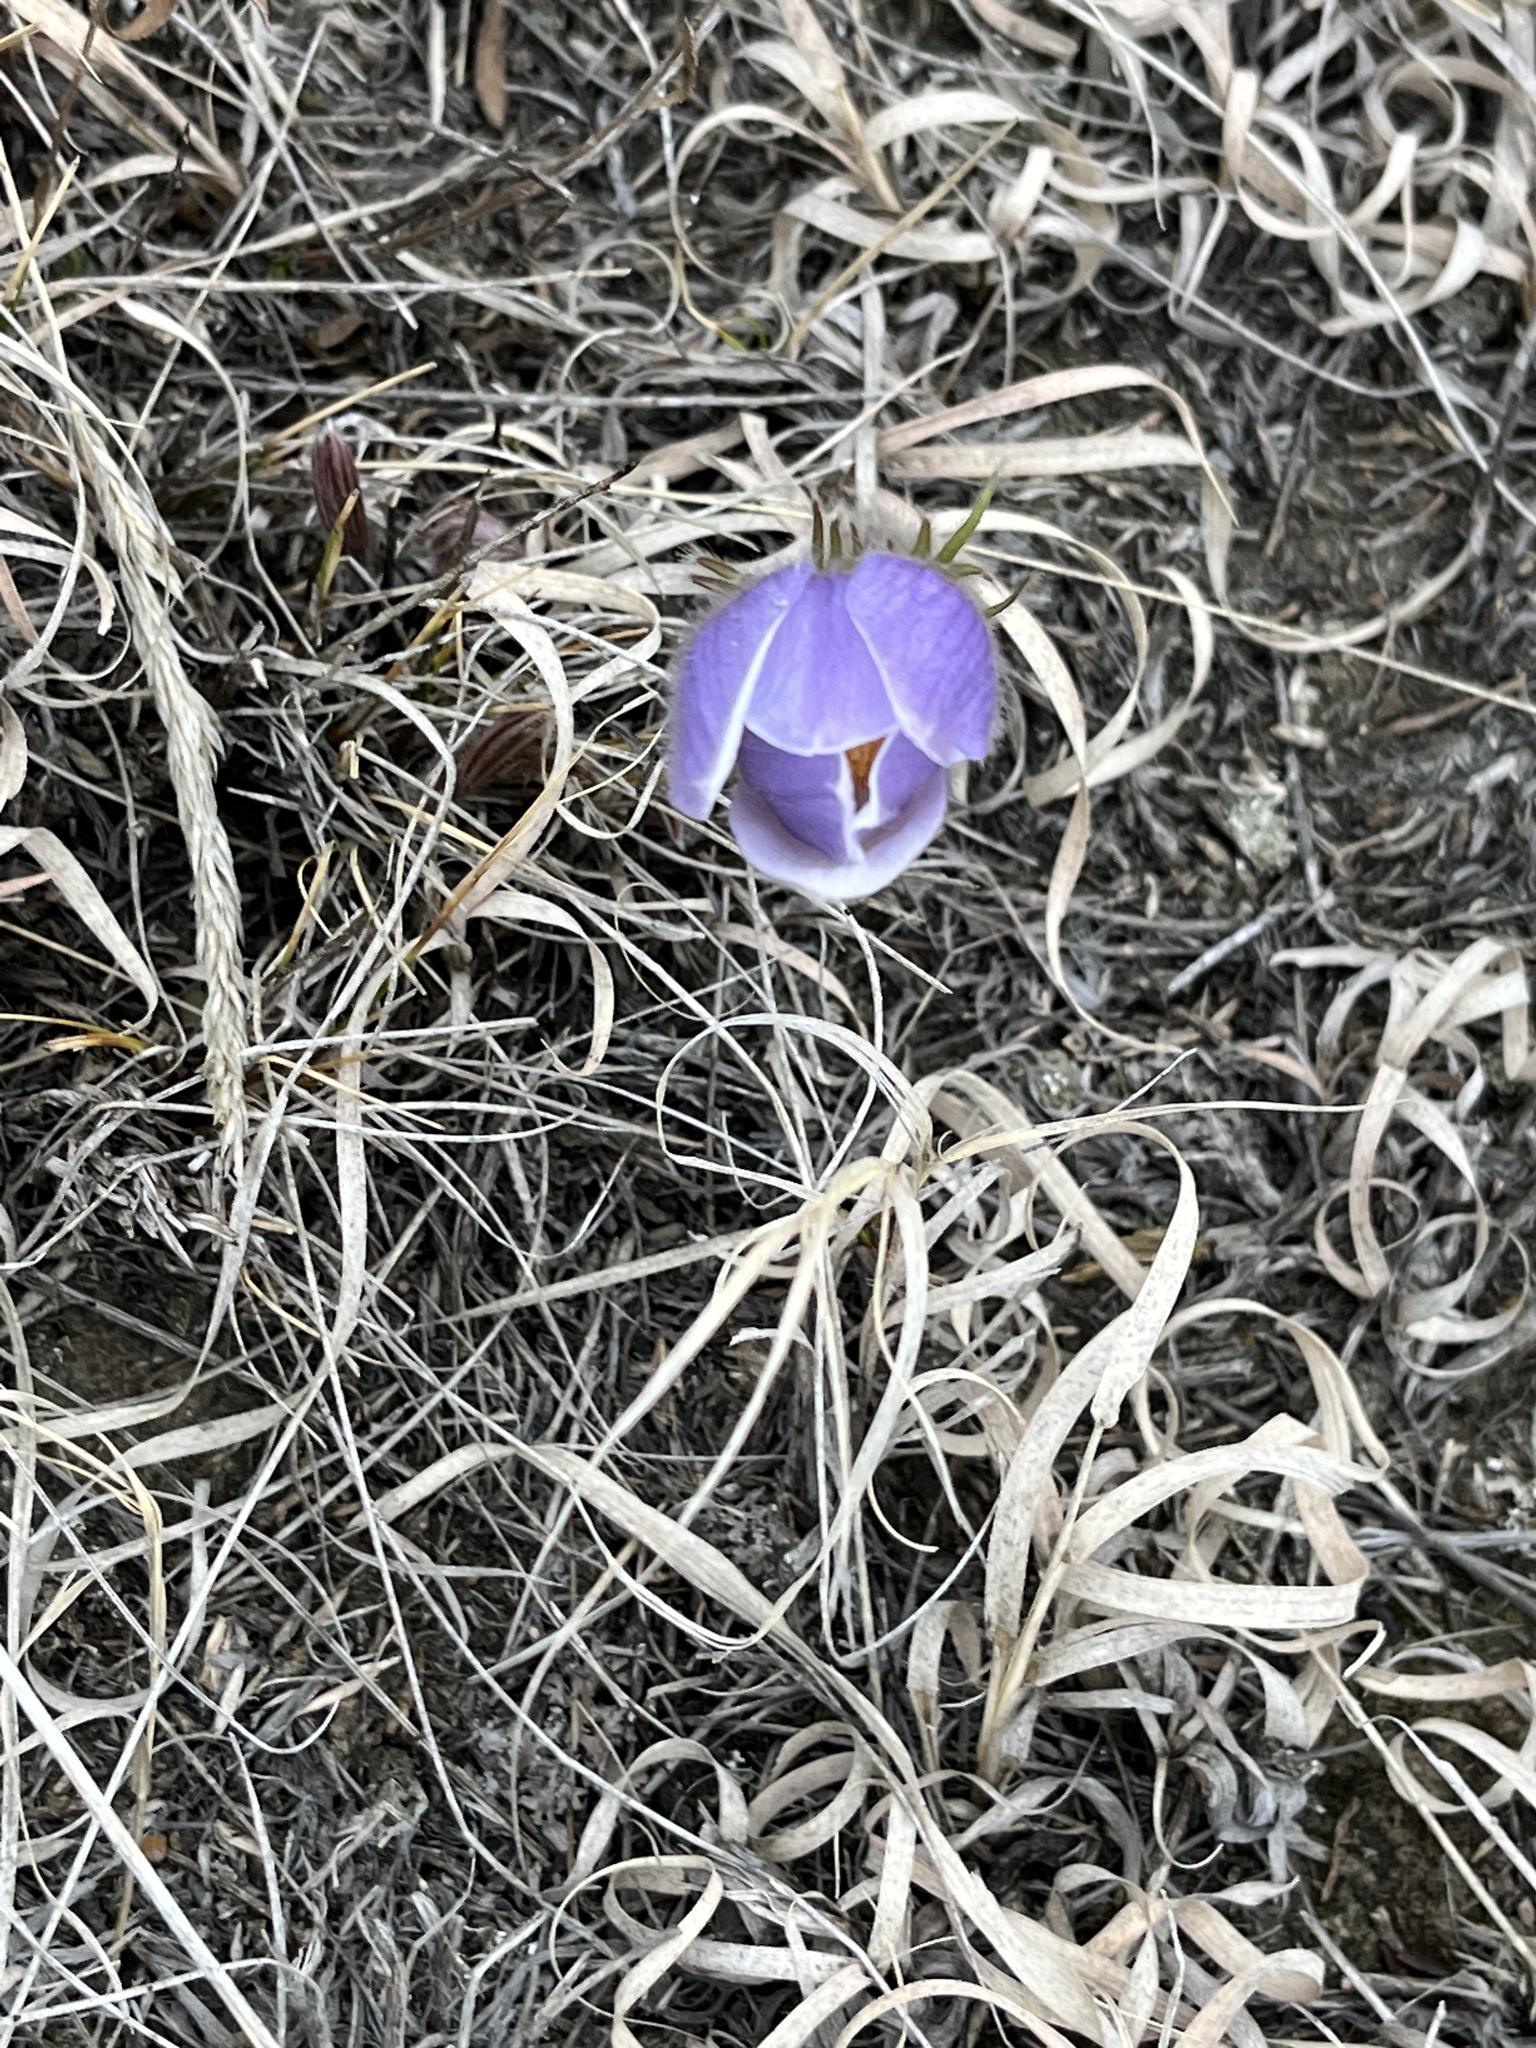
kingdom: Plantae
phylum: Tracheophyta
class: Magnoliopsida
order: Ranunculales
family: Ranunculaceae
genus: Pulsatilla
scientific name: Pulsatilla nuttalliana
